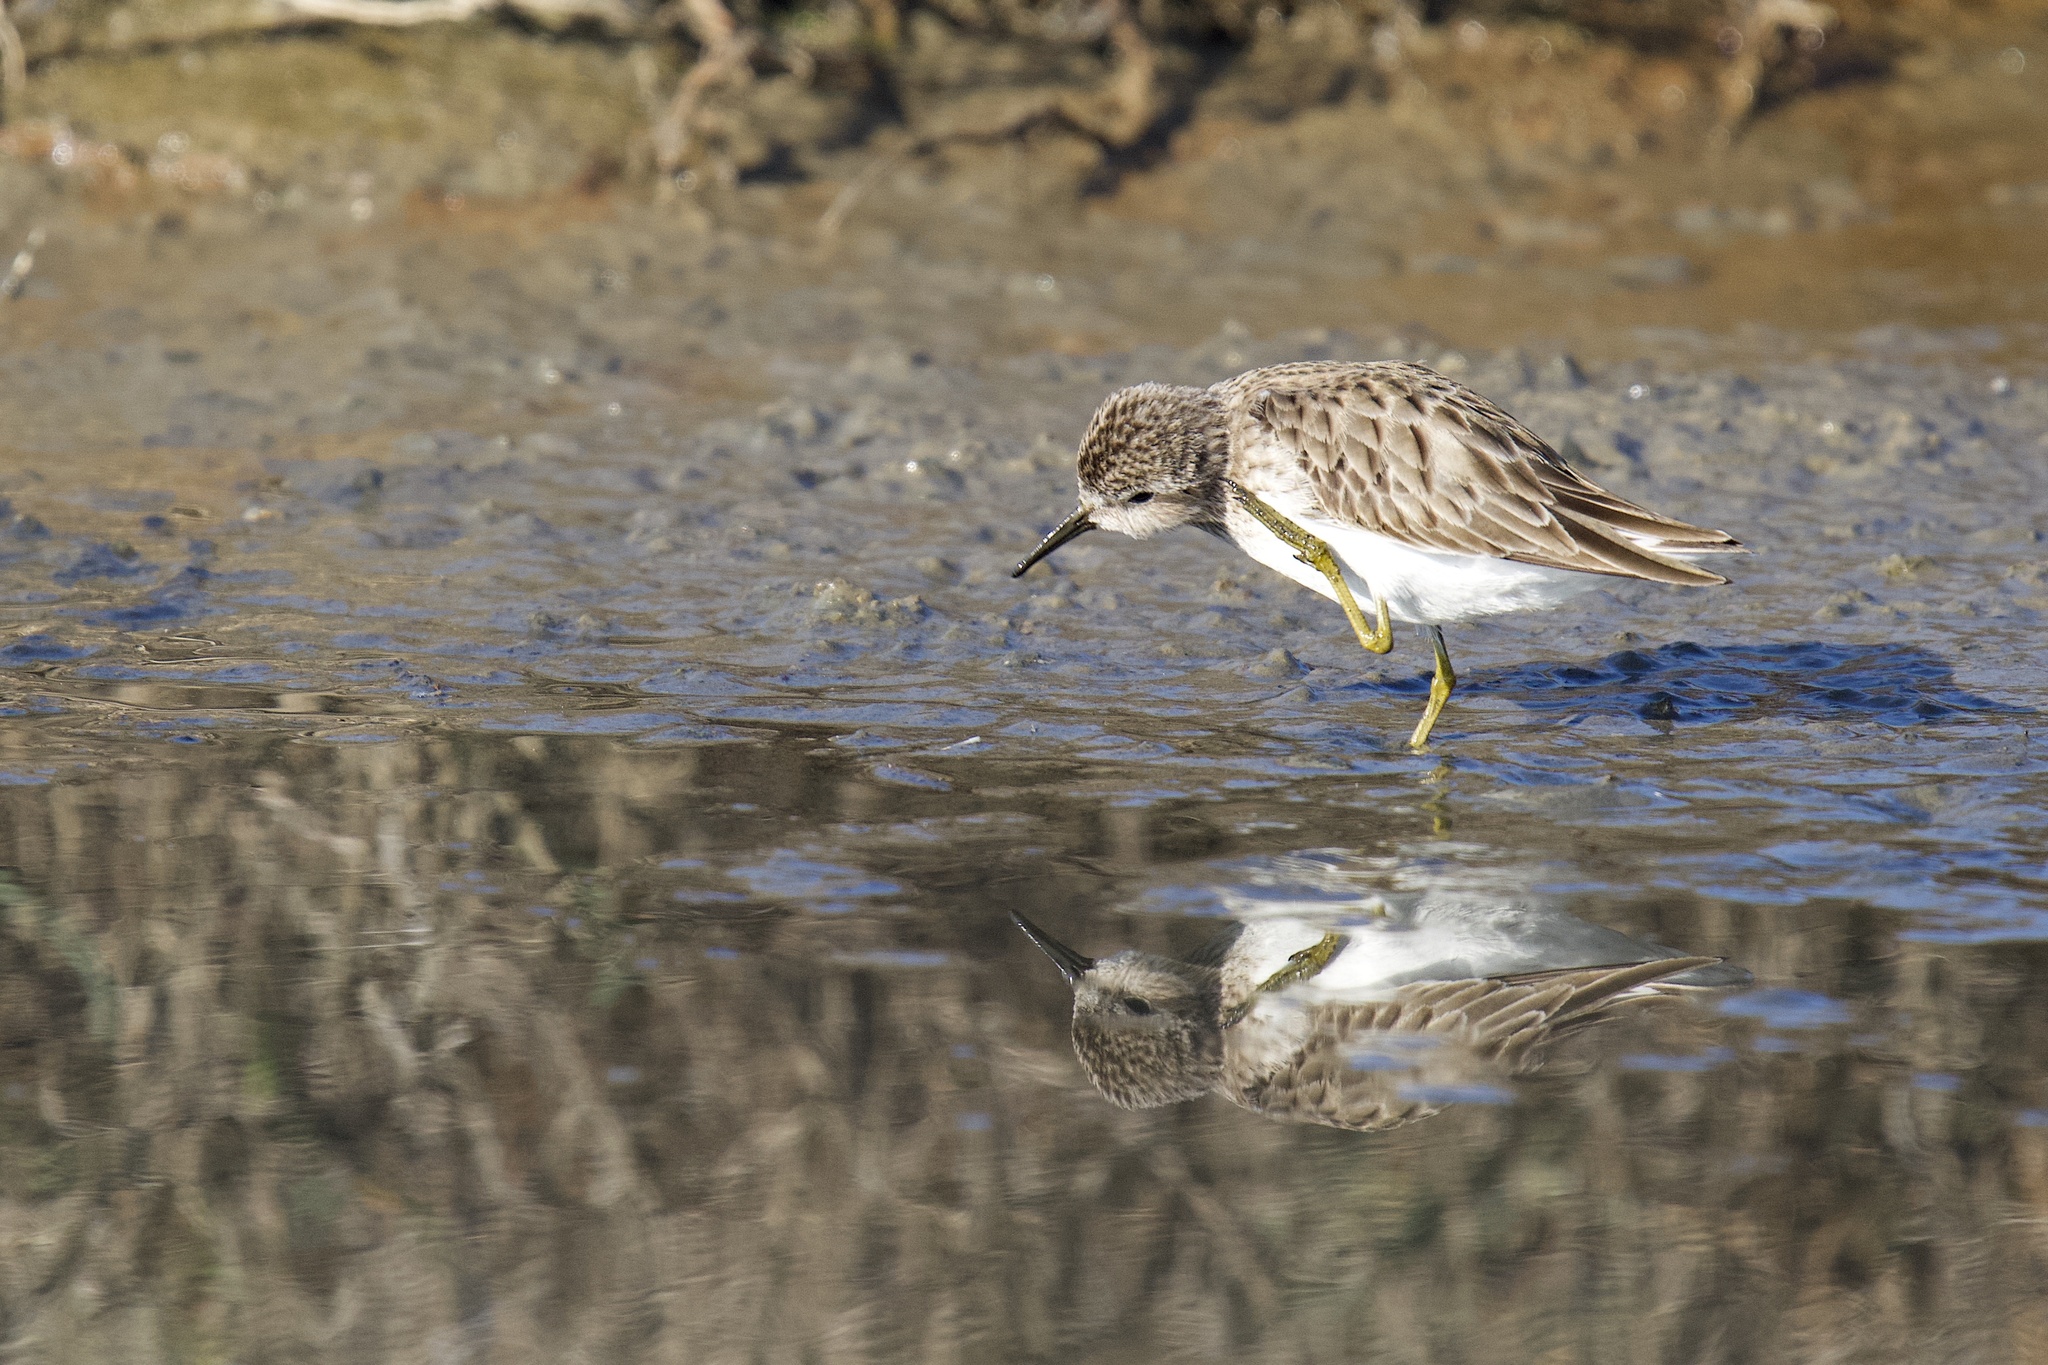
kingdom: Animalia
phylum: Chordata
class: Aves
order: Charadriiformes
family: Scolopacidae
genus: Calidris
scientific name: Calidris minutilla
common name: Least sandpiper
